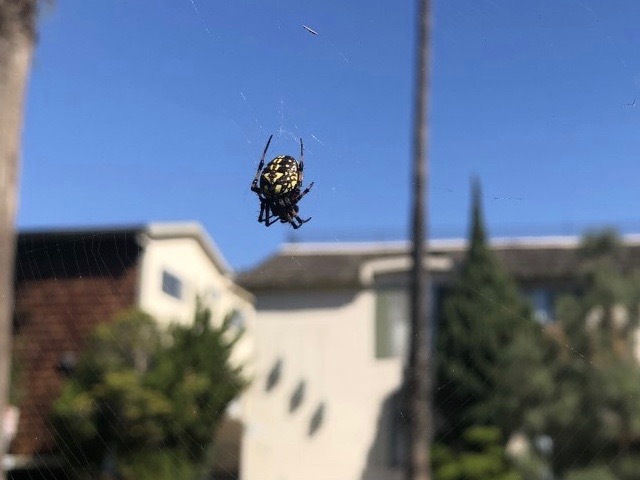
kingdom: Animalia
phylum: Arthropoda
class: Arachnida
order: Araneae
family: Araneidae
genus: Neoscona
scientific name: Neoscona oaxacensis
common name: Orb weavers
